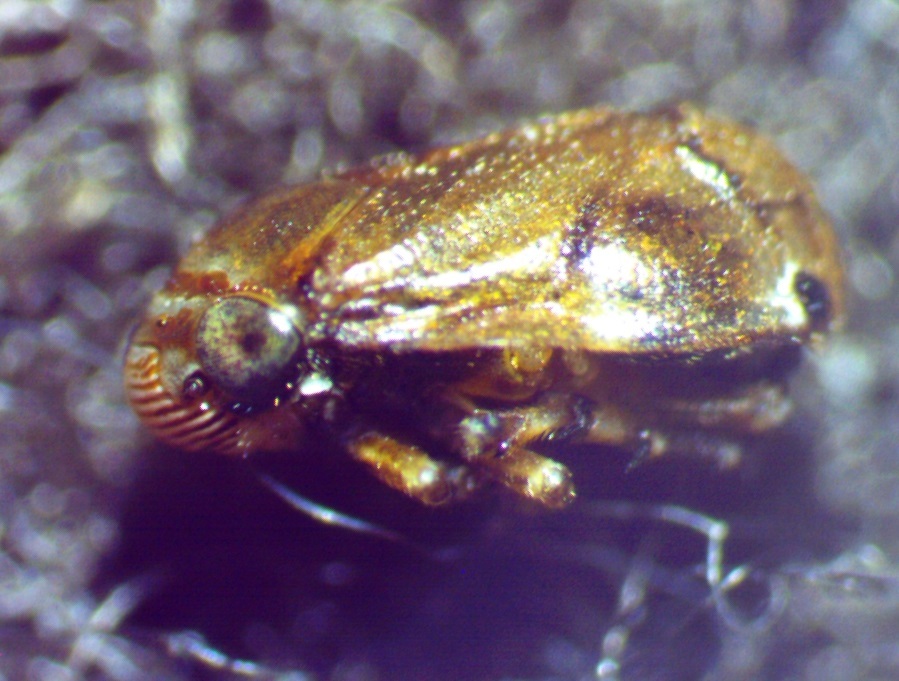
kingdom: Animalia
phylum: Arthropoda
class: Insecta
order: Hemiptera
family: Clastopteridae
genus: Clastoptera
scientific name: Clastoptera xanthocephala
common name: Sunflower spittlebug
